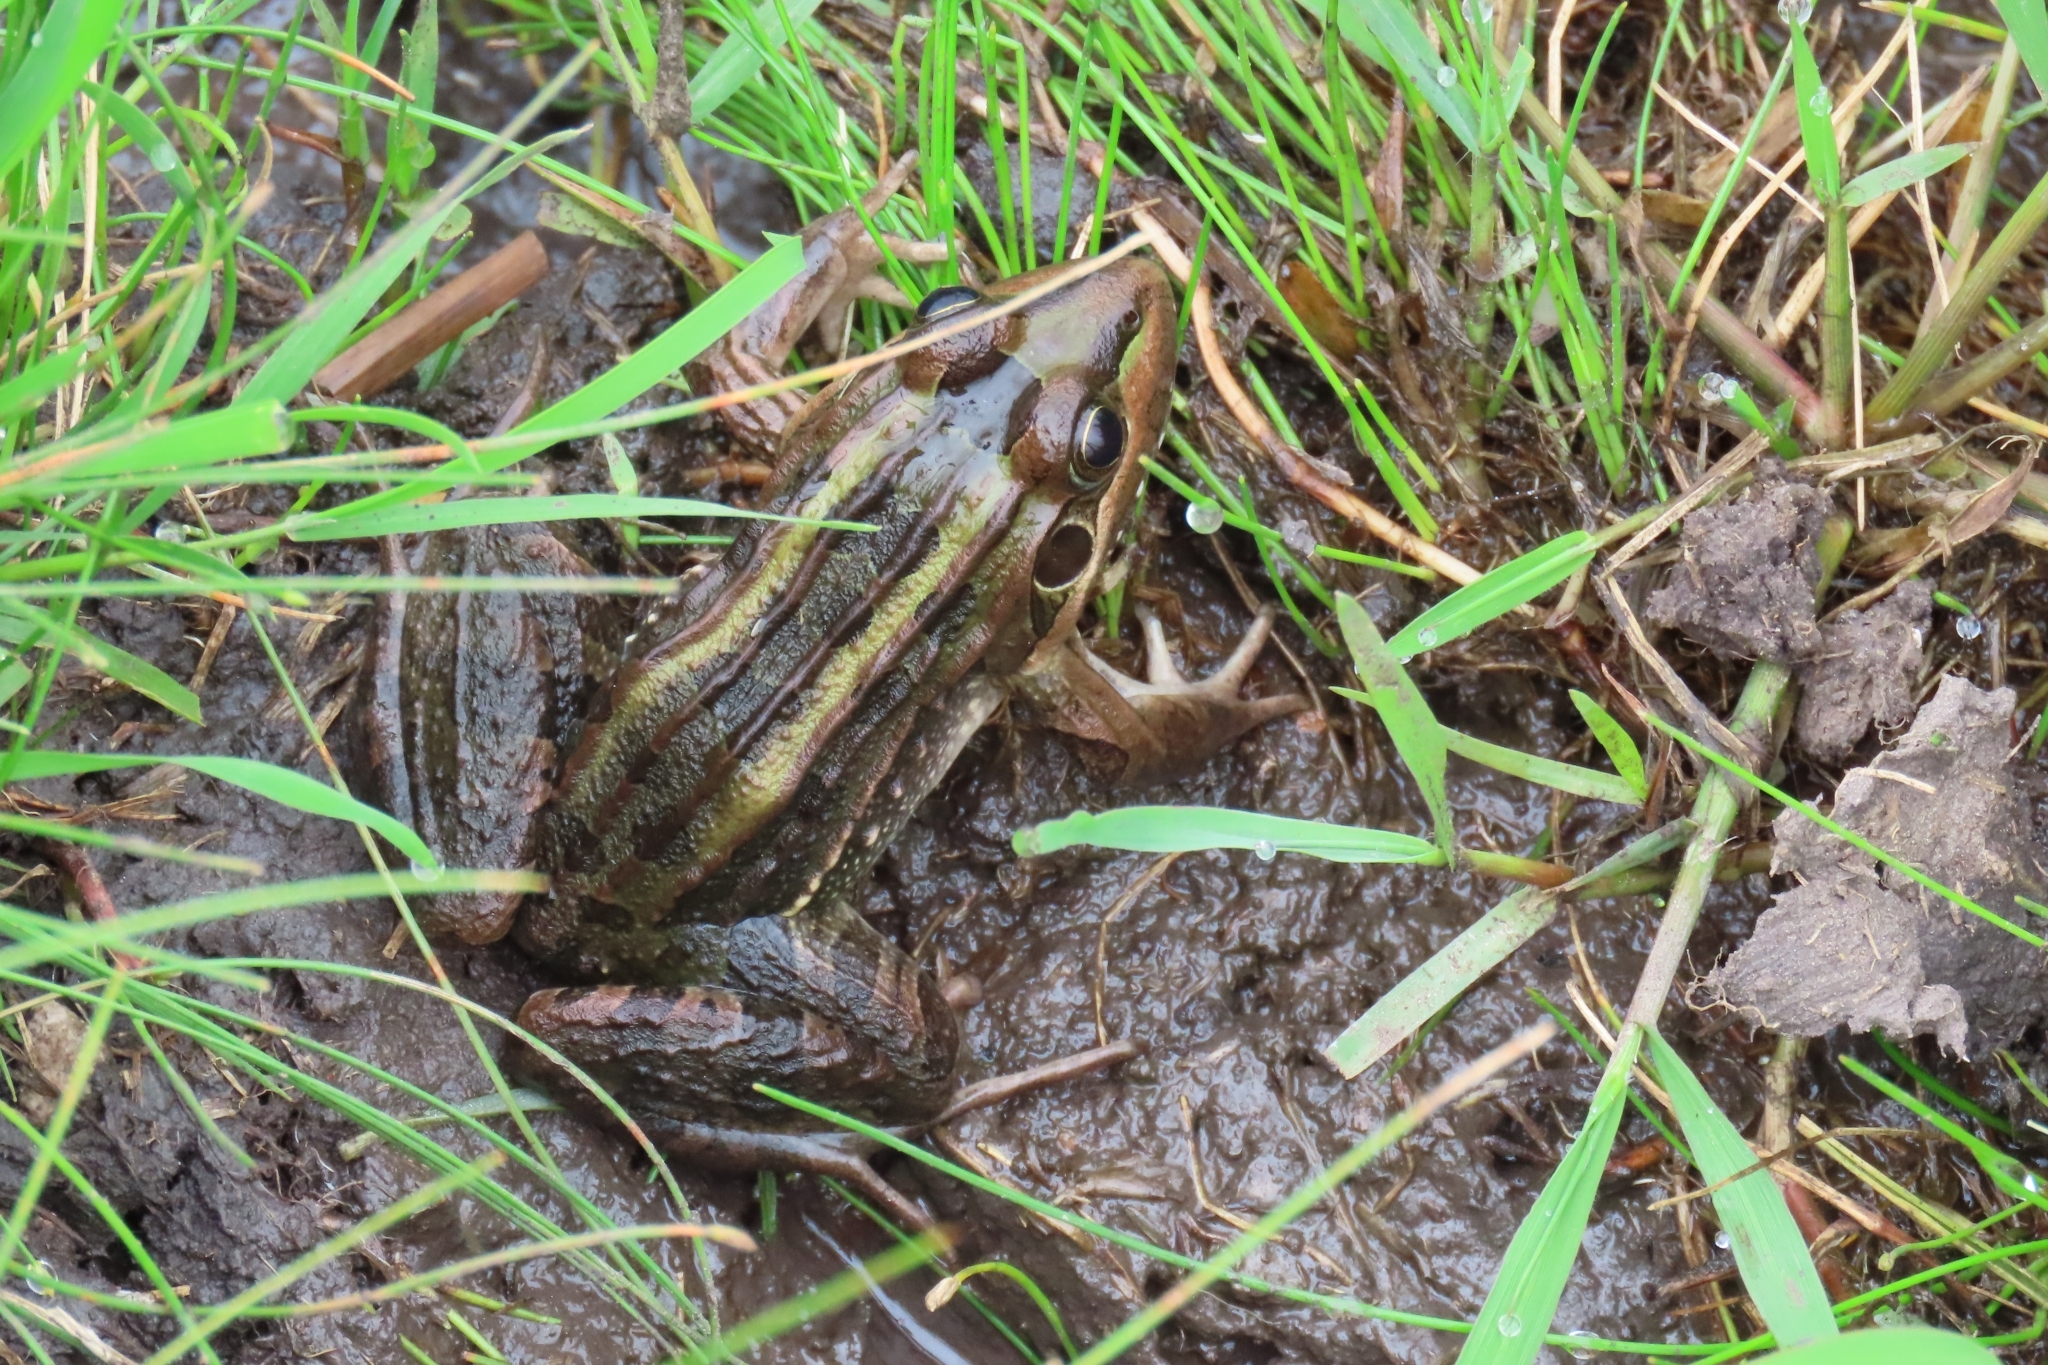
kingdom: Animalia
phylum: Chordata
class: Amphibia
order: Anura
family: Leptodactylidae
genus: Leptodactylus
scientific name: Leptodactylus luctator
